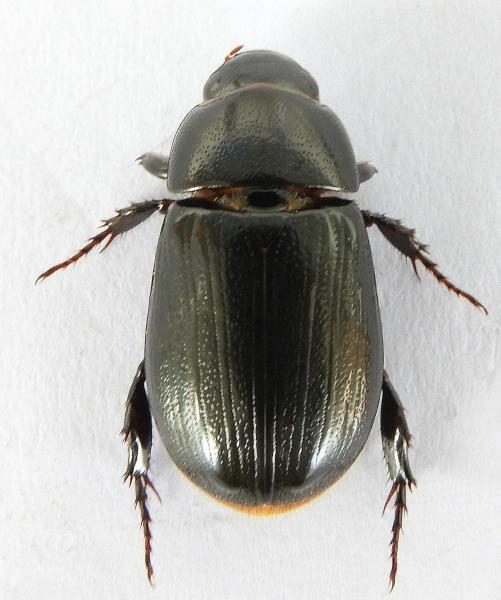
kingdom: Animalia
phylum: Arthropoda
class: Insecta
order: Coleoptera
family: Scarabaeidae
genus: Dyscinetus
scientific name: Dyscinetus morator
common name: Rice beetle
